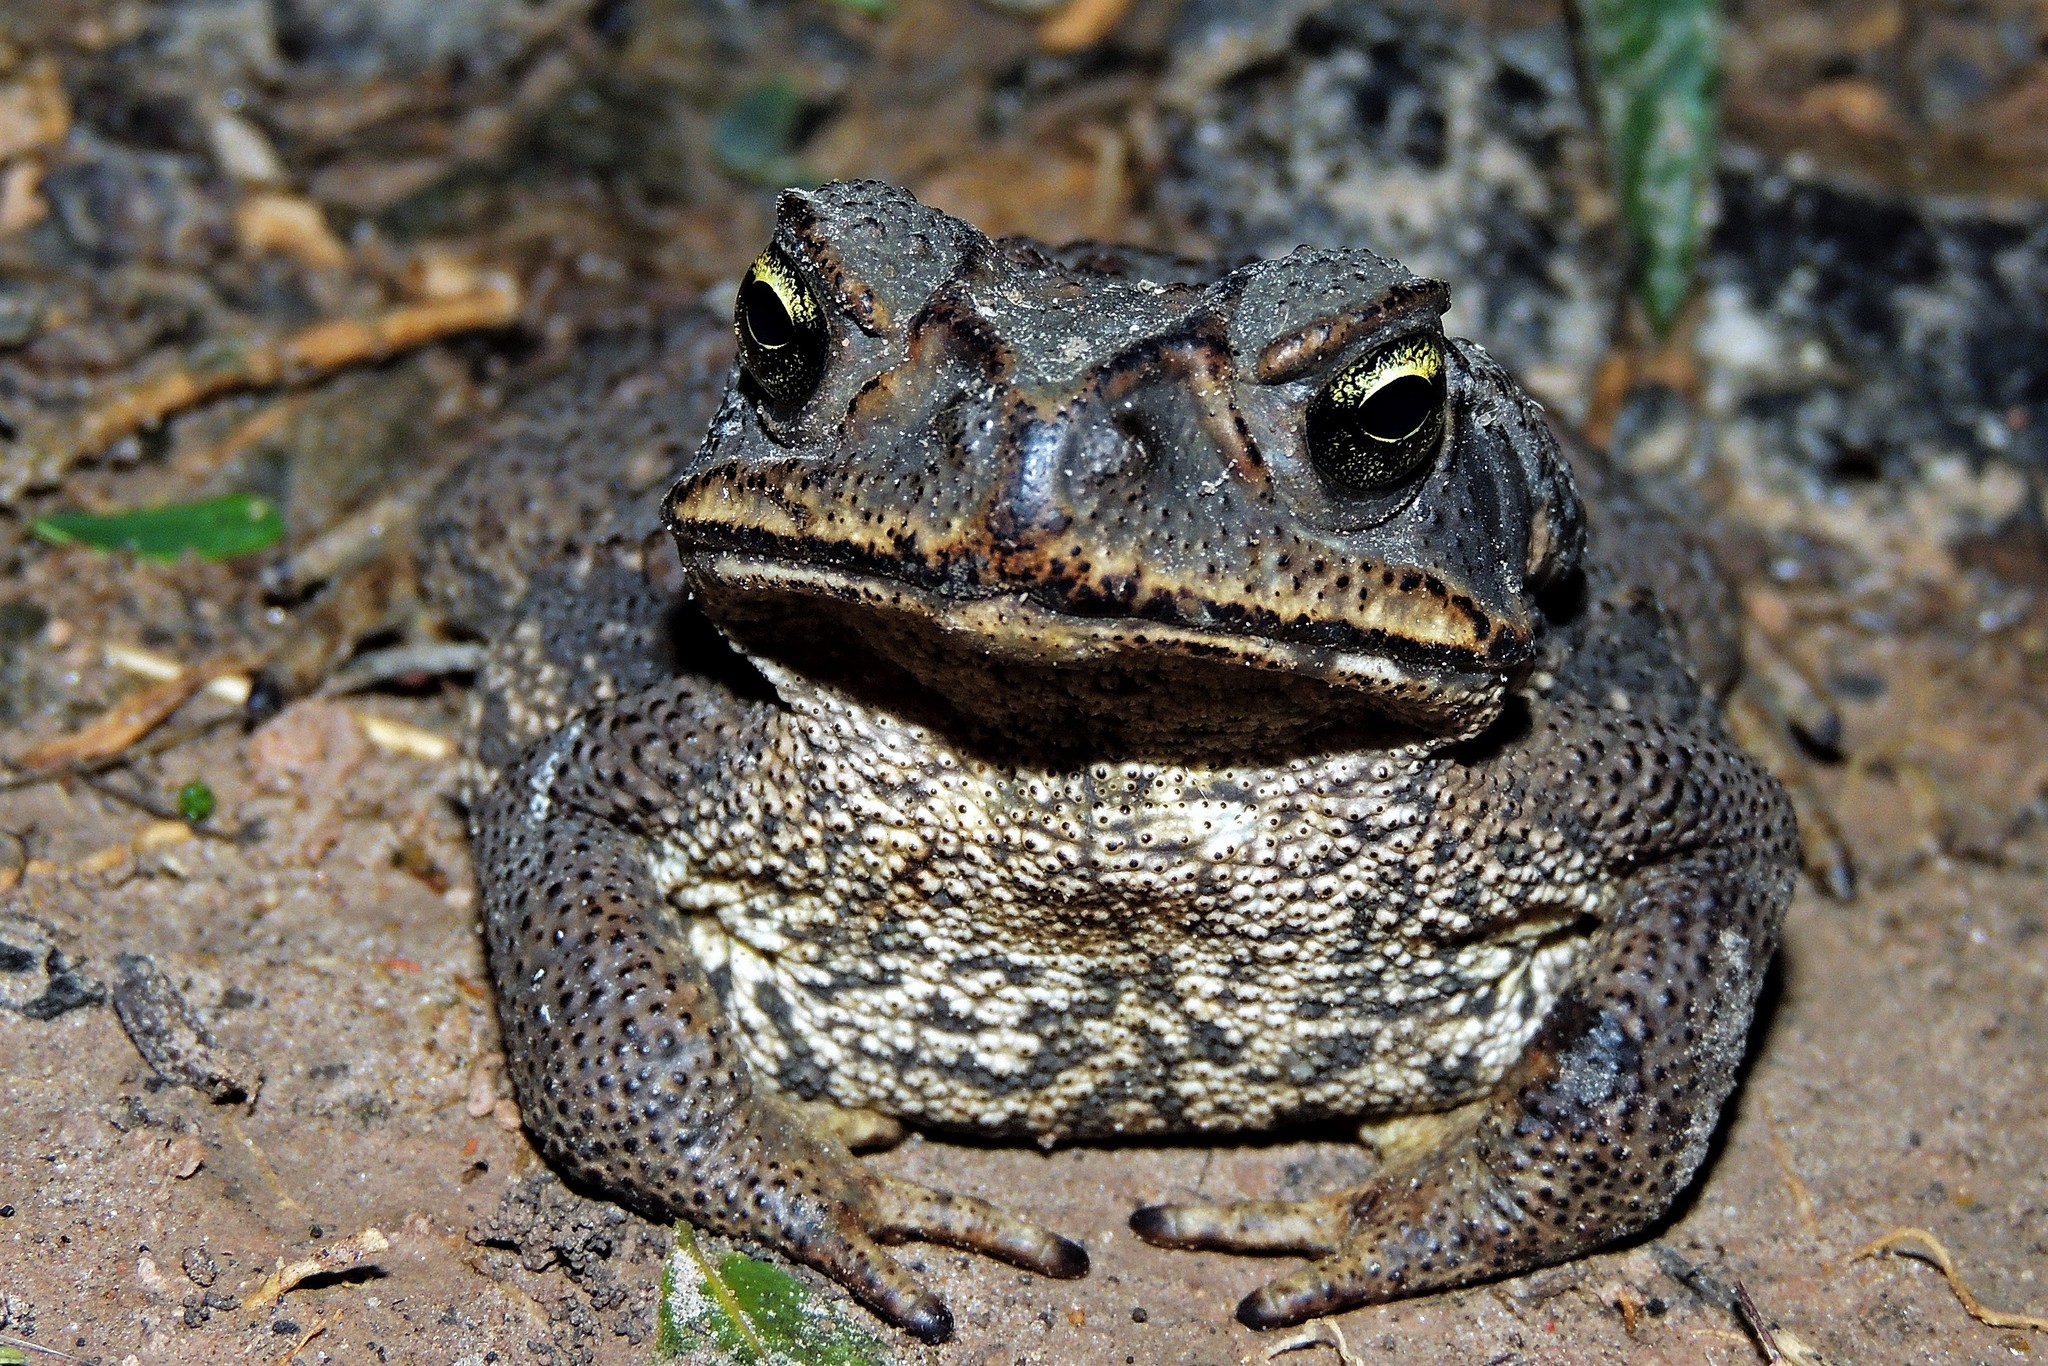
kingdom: Animalia
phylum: Chordata
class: Amphibia
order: Anura
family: Bufonidae
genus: Rhinella
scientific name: Rhinella diptycha
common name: Cope's toad
